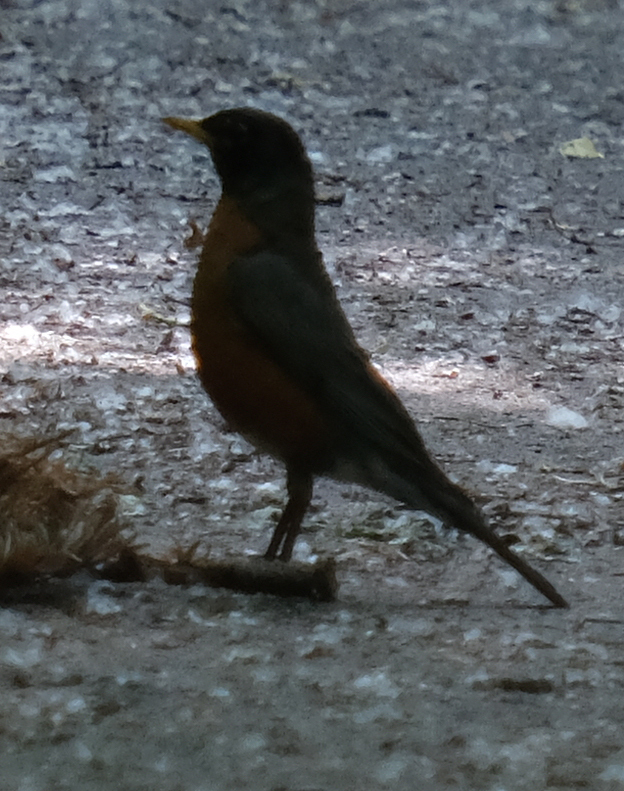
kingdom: Animalia
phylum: Chordata
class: Aves
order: Passeriformes
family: Turdidae
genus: Turdus
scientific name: Turdus migratorius
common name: American robin
